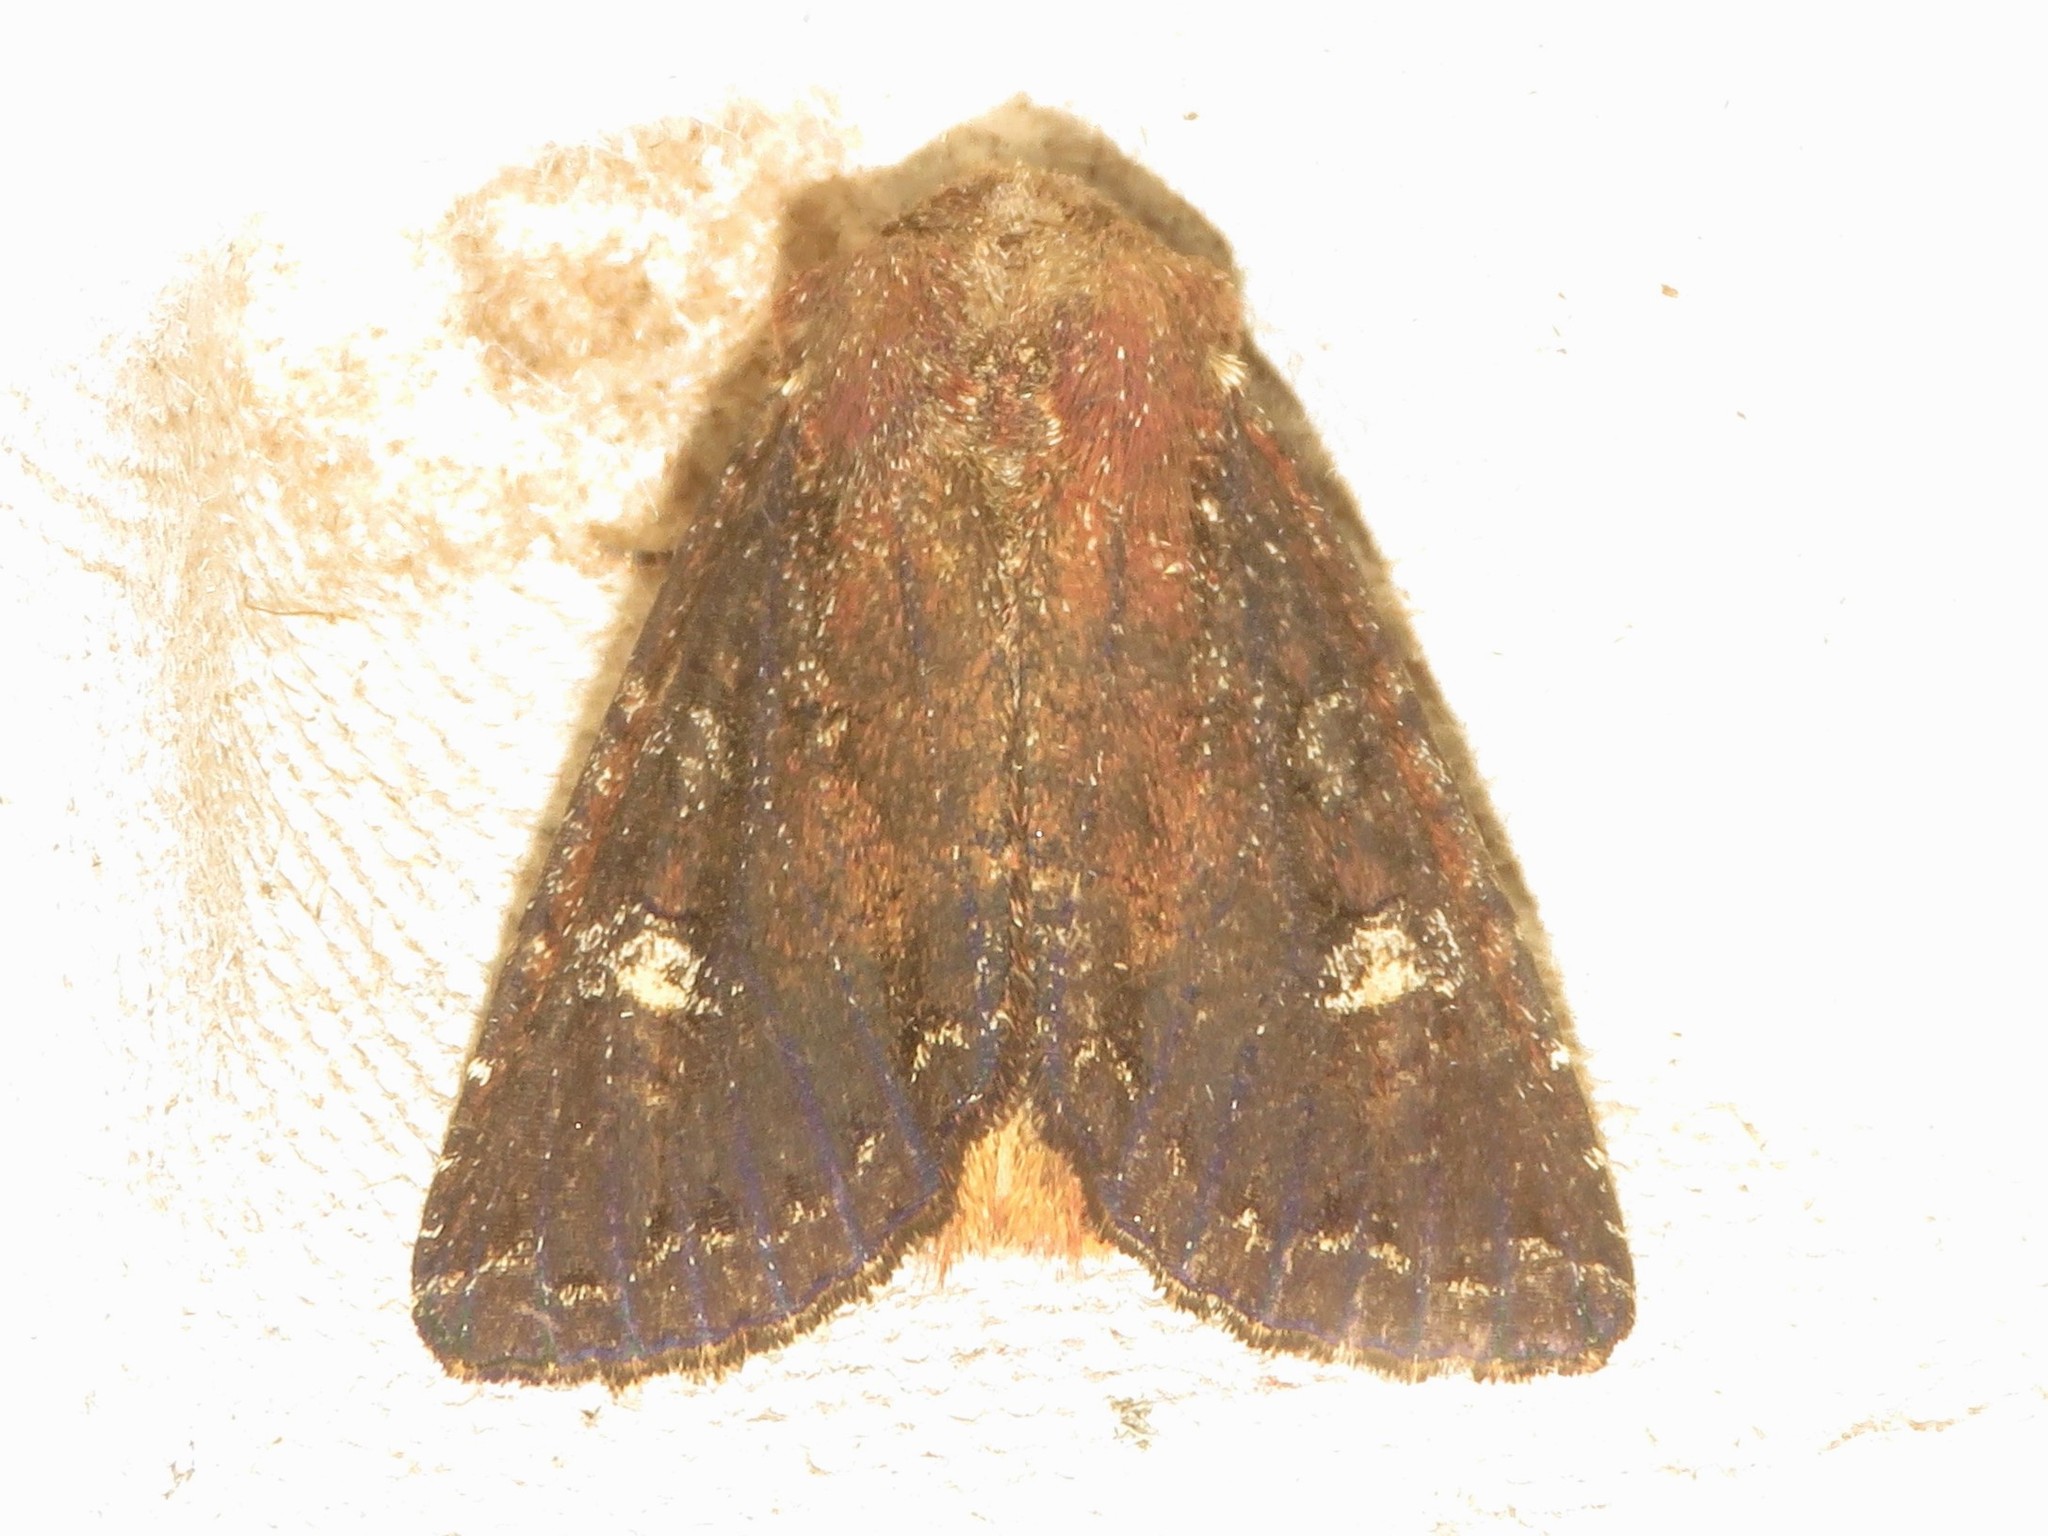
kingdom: Animalia
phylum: Arthropoda
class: Insecta
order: Lepidoptera
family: Noctuidae
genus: Orthodes
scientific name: Orthodes obscura
